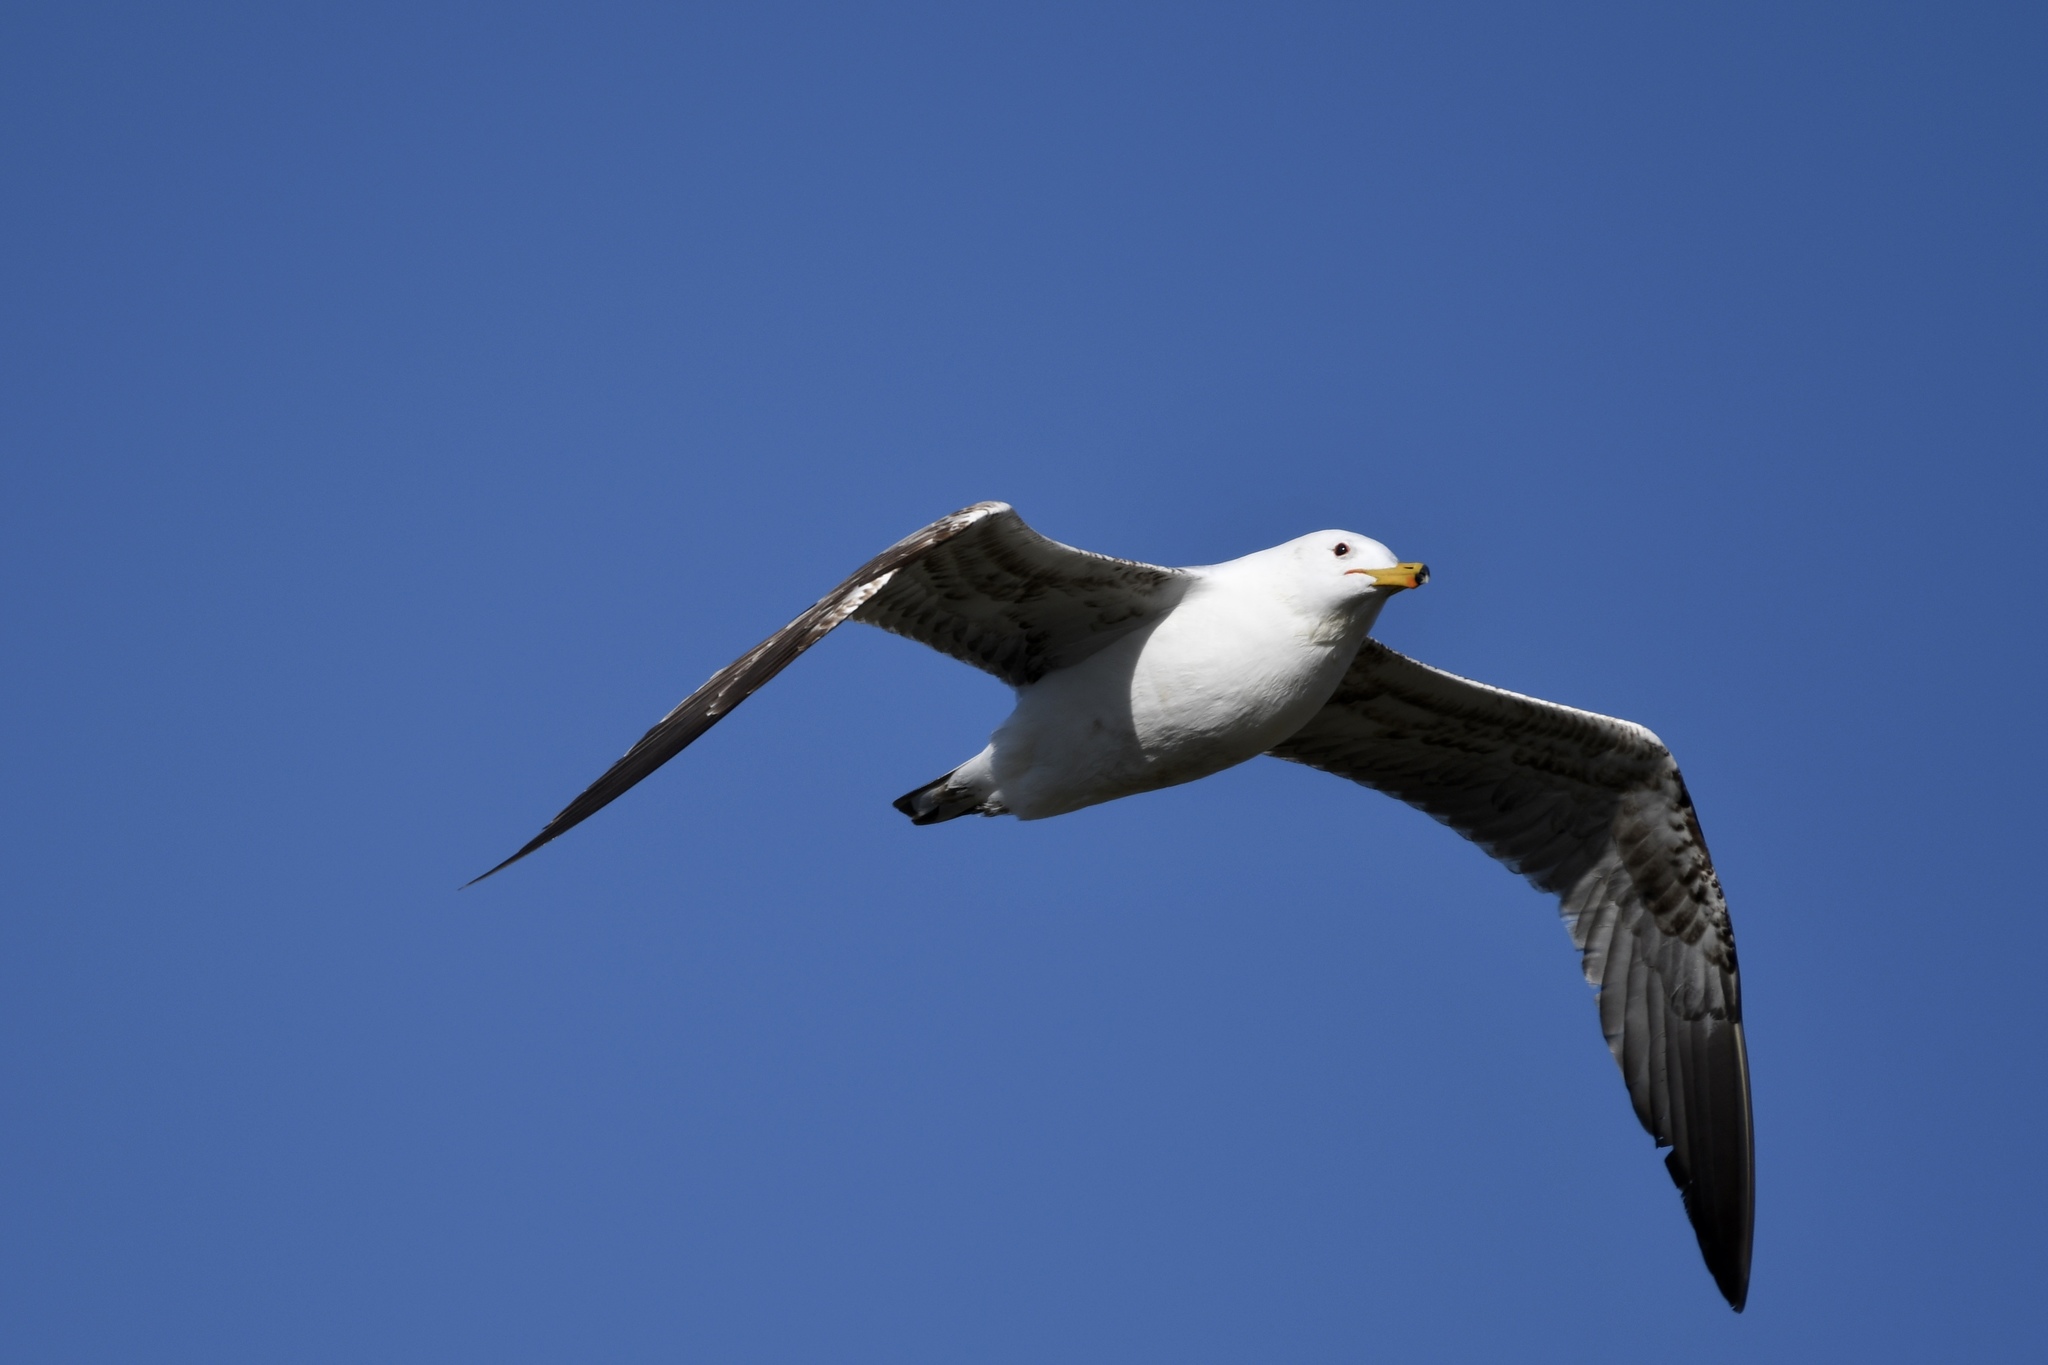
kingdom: Animalia
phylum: Chordata
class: Aves
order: Charadriiformes
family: Laridae
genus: Larus
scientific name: Larus californicus
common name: California gull
